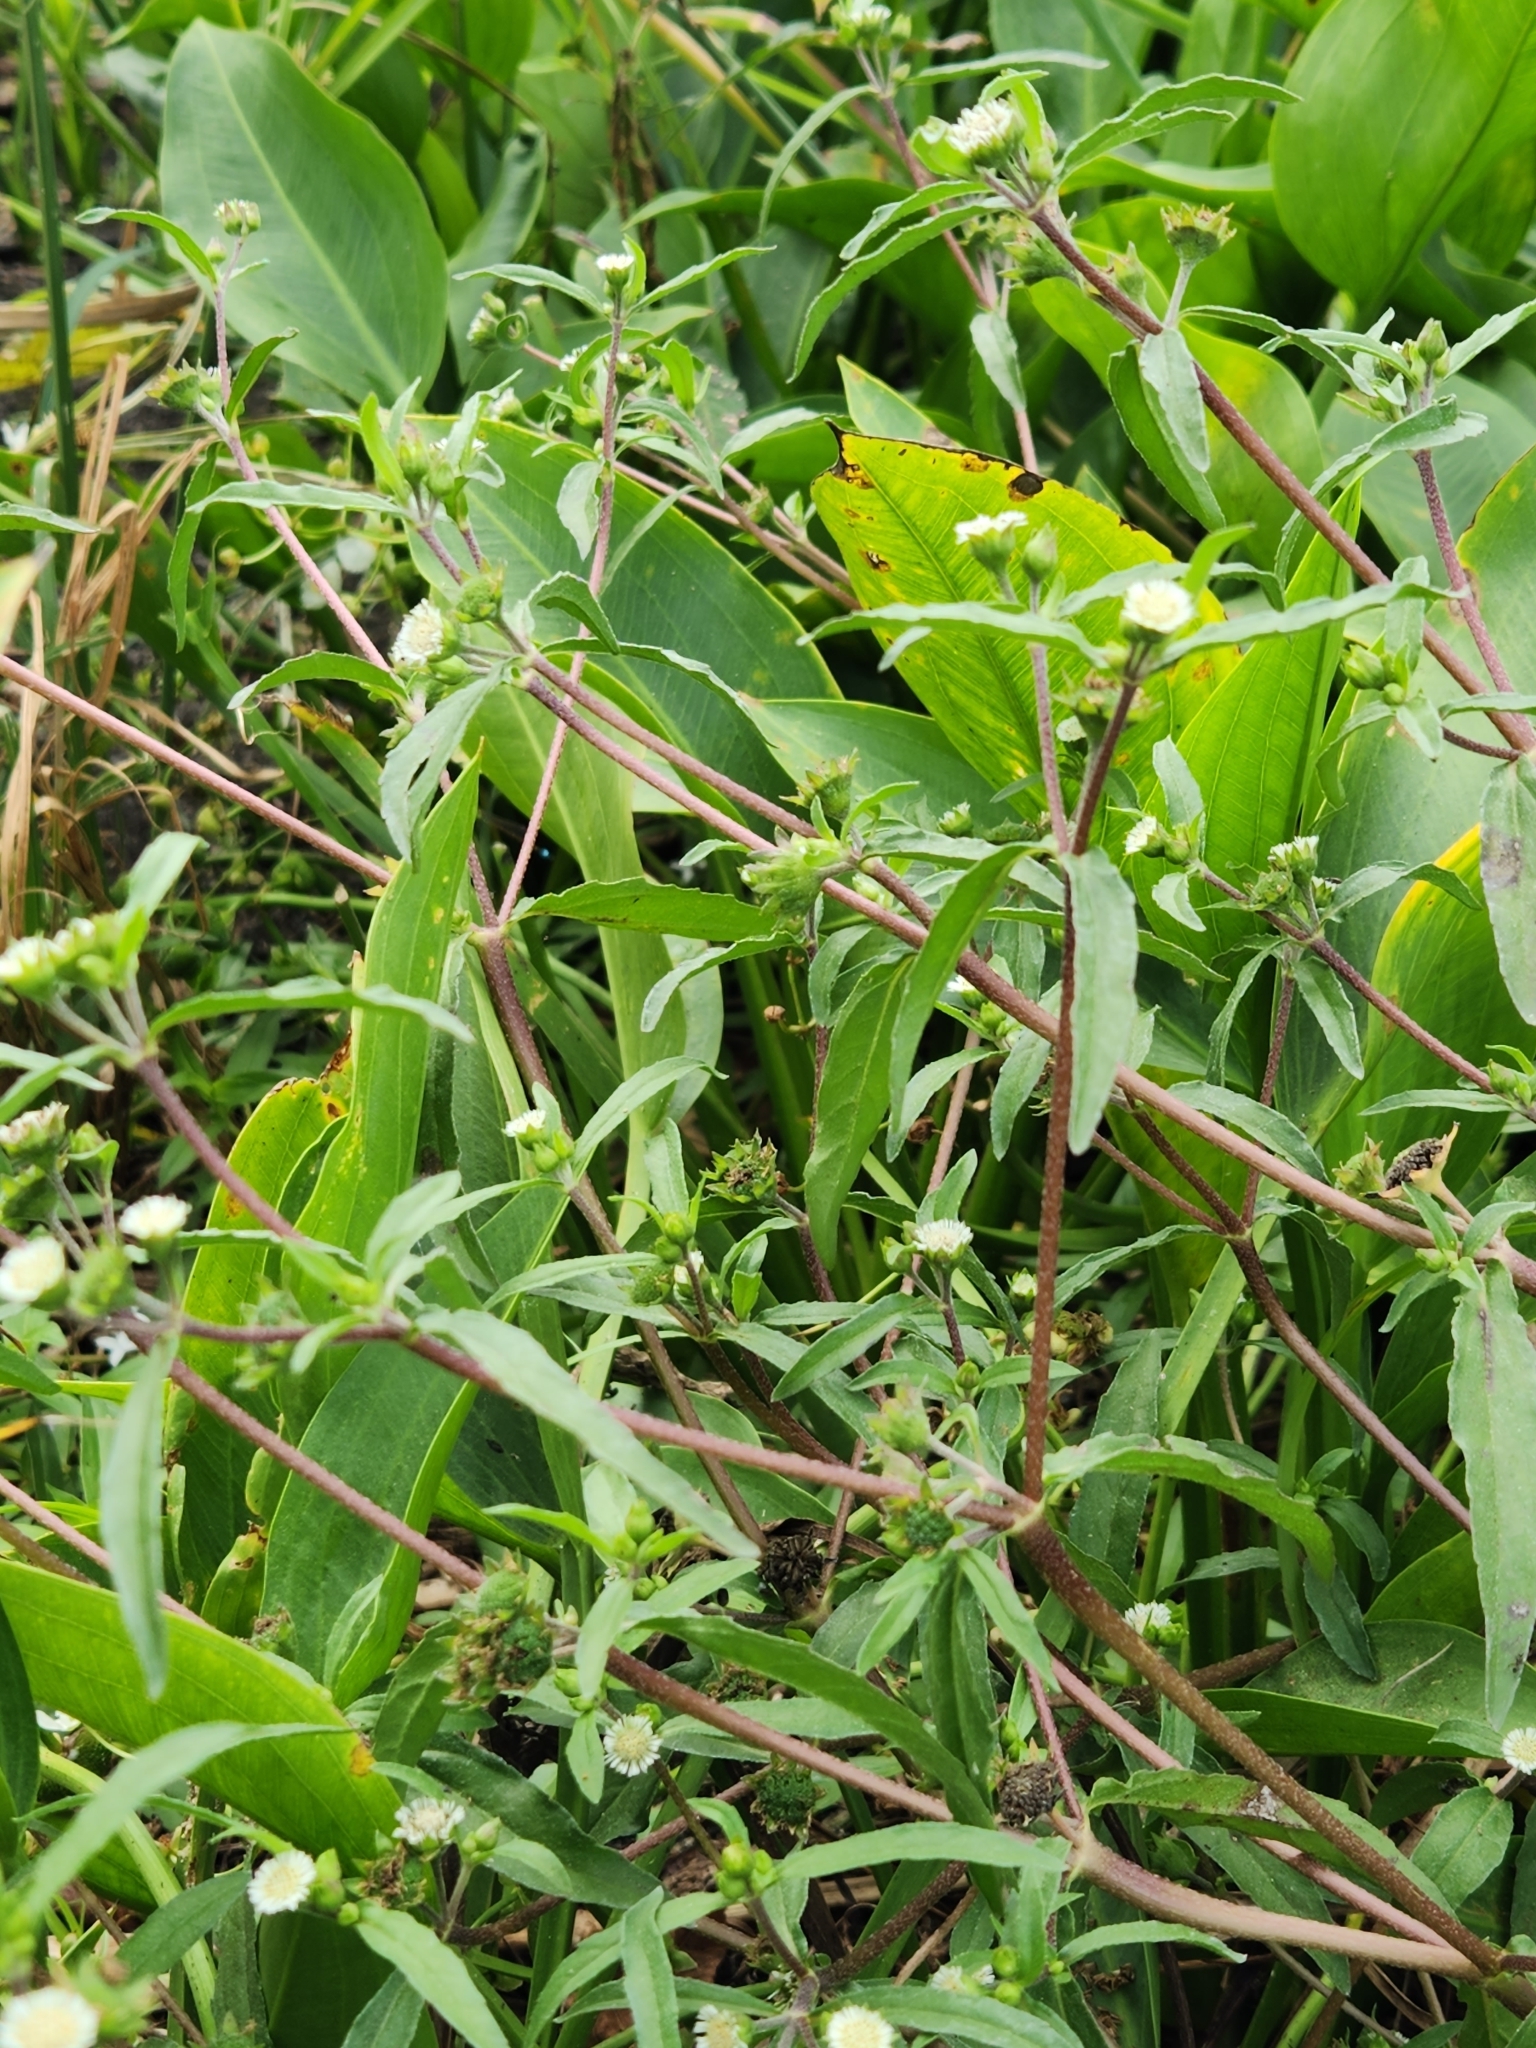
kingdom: Plantae
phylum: Tracheophyta
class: Magnoliopsida
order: Asterales
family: Asteraceae
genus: Eclipta
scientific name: Eclipta prostrata
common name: False daisy
